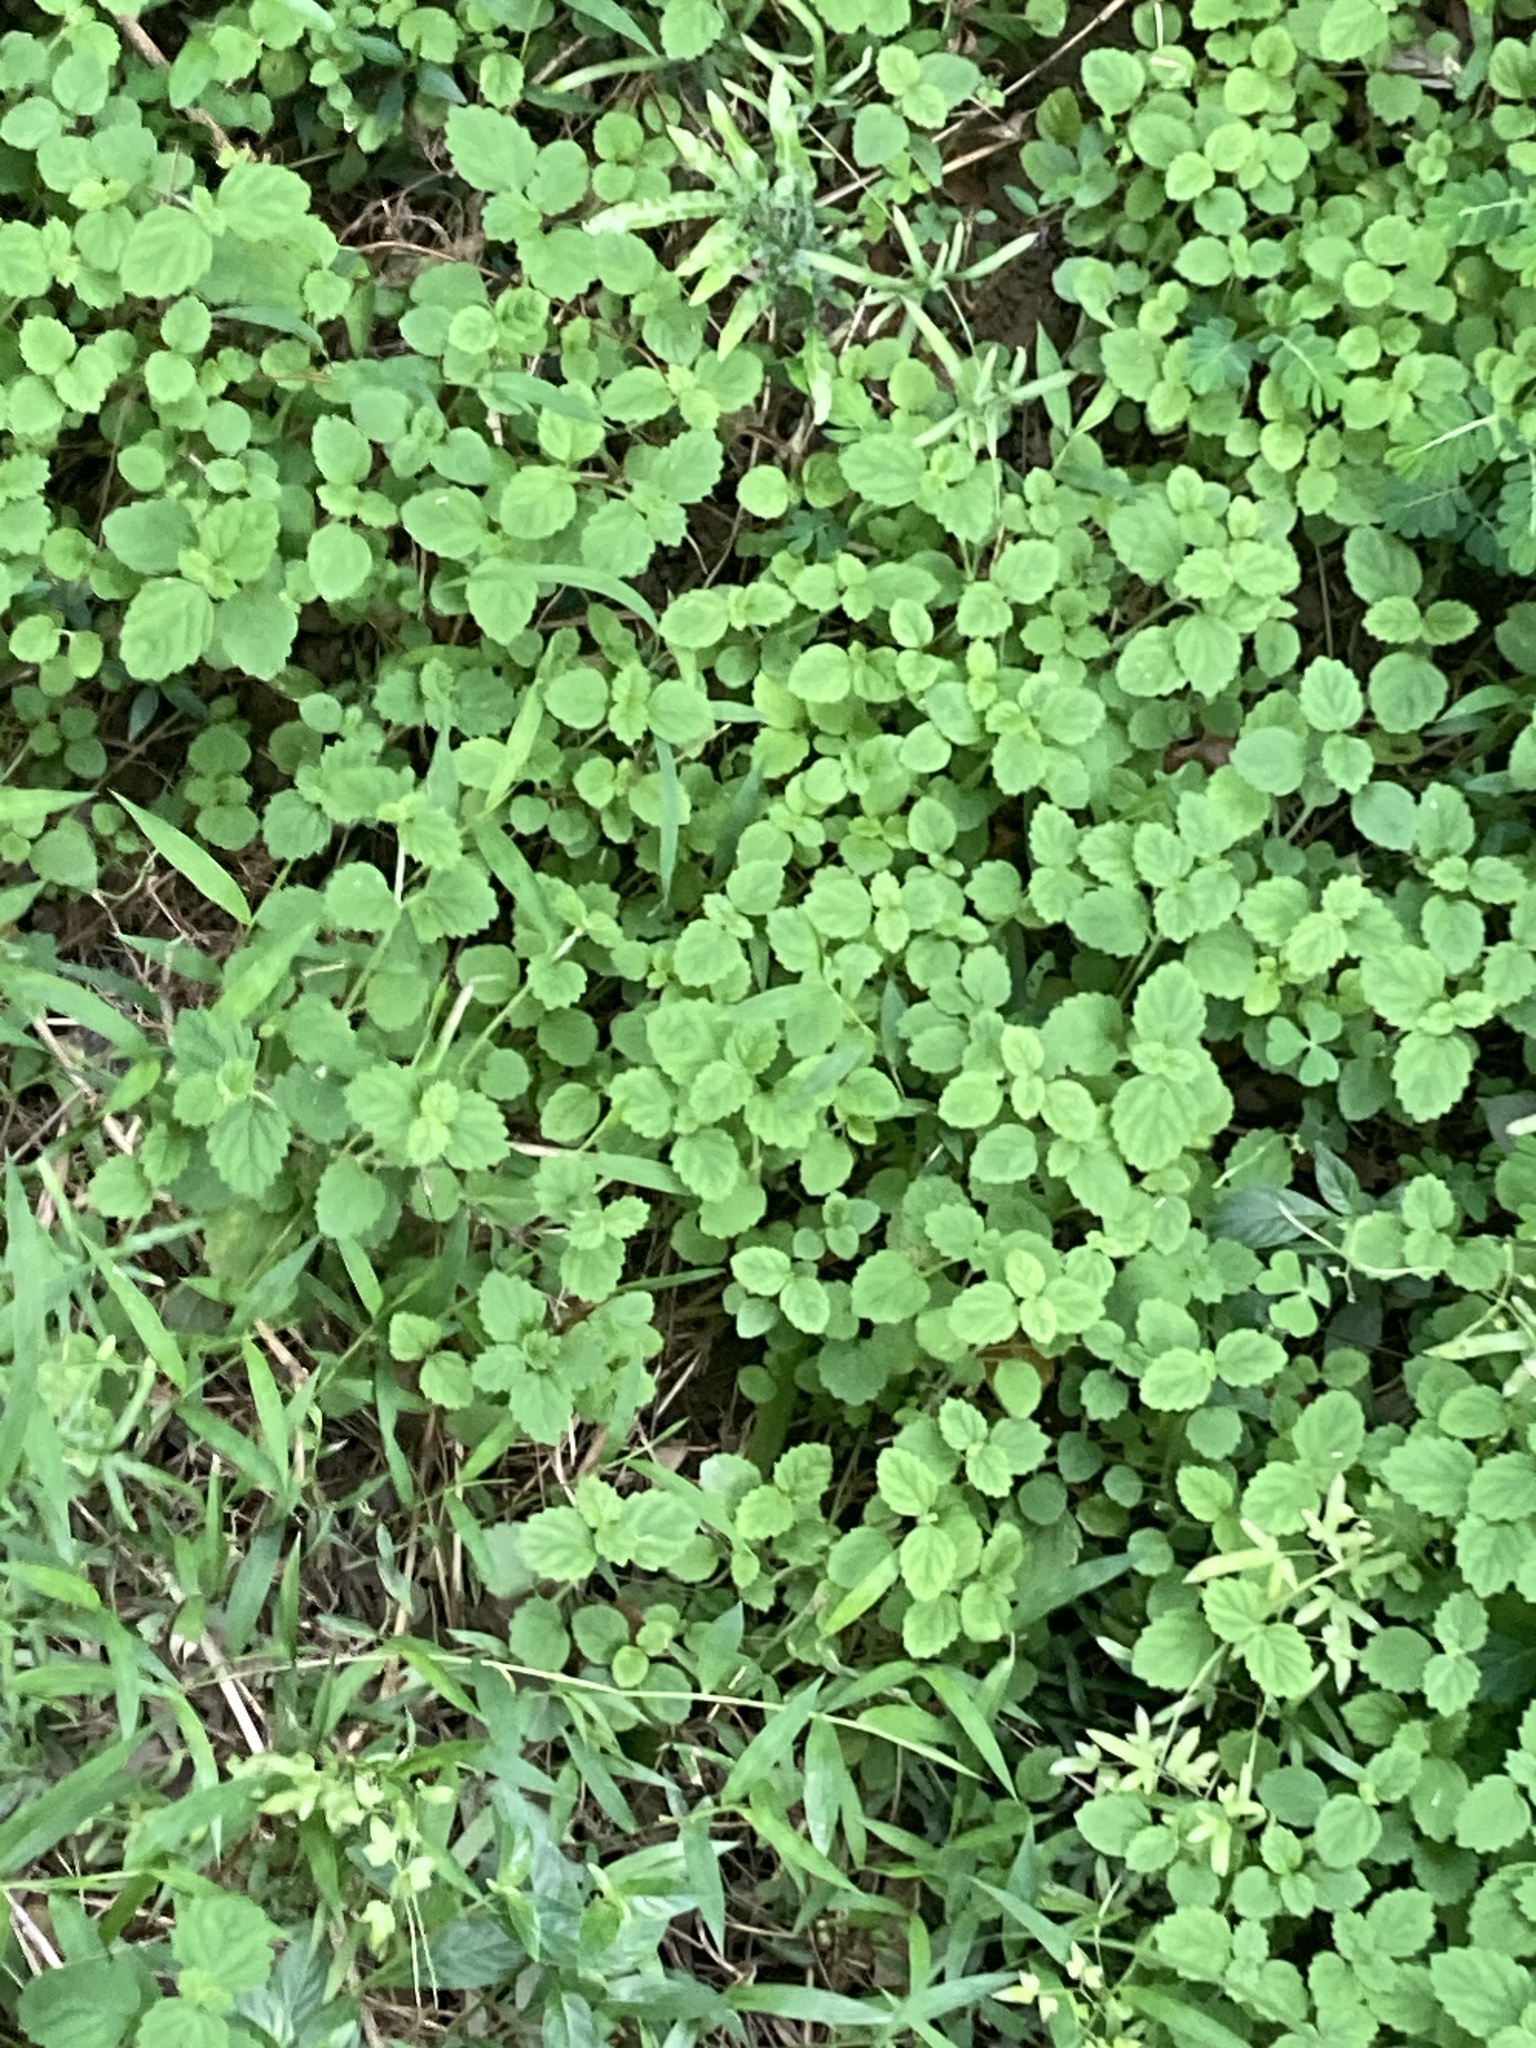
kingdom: Plantae
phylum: Tracheophyta
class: Magnoliopsida
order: Lamiales
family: Lamiaceae
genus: Leucas
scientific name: Leucas chinensis
